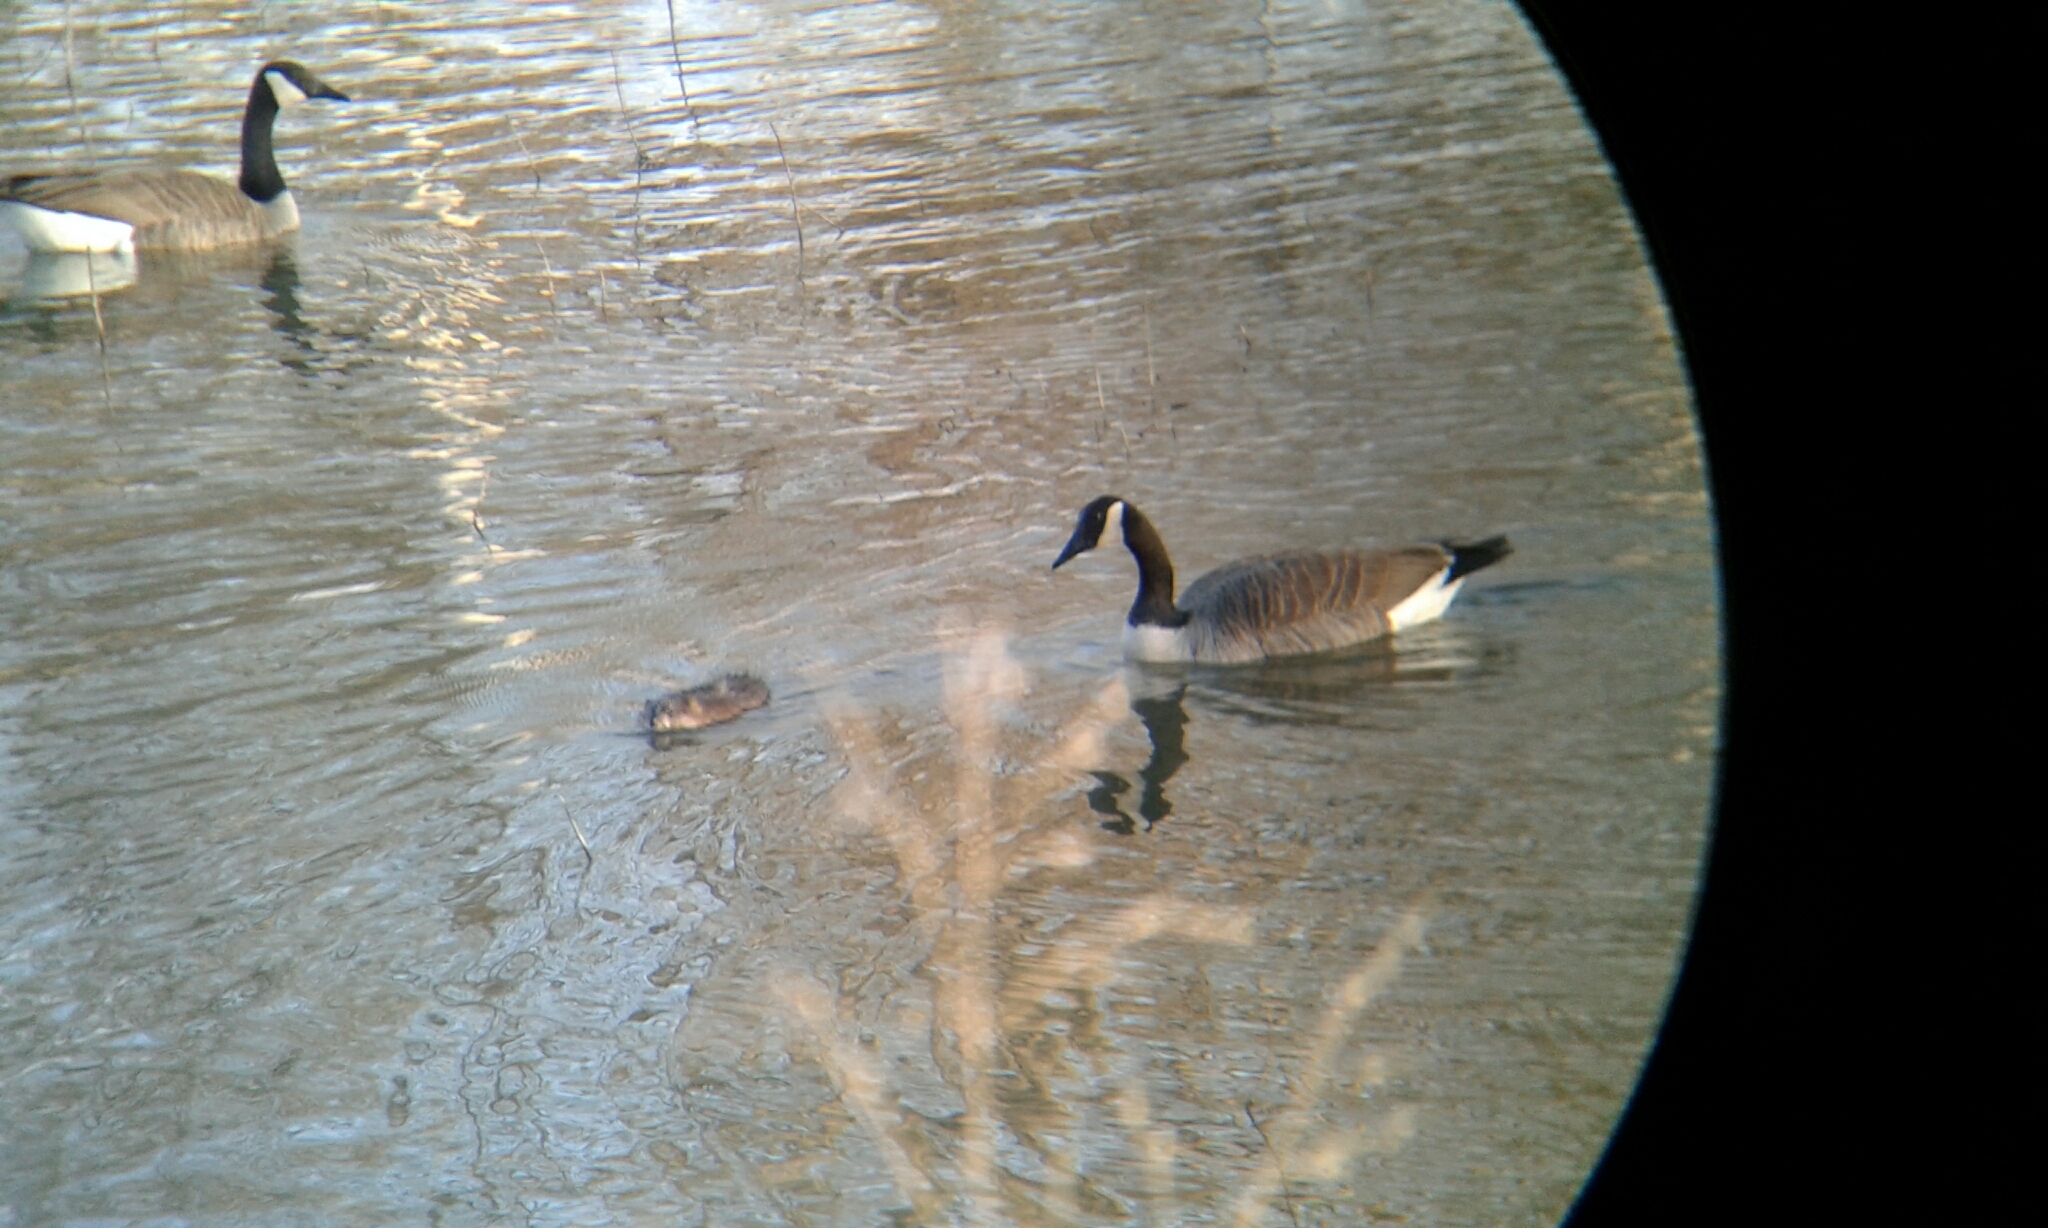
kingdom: Animalia
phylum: Chordata
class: Mammalia
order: Rodentia
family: Cricetidae
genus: Ondatra
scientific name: Ondatra zibethicus
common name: Muskrat
